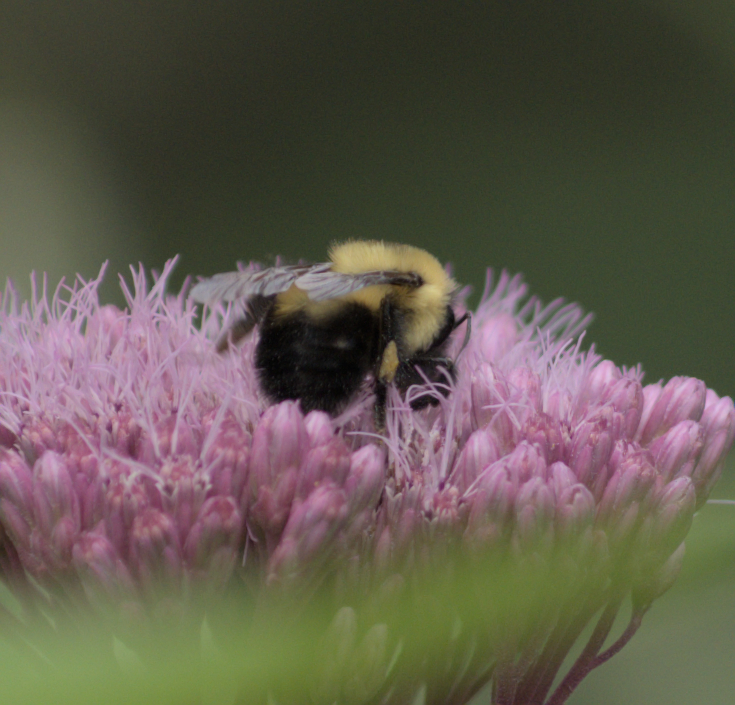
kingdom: Animalia
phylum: Arthropoda
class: Insecta
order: Hymenoptera
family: Apidae
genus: Bombus
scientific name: Bombus bimaculatus
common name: Two-spotted bumble bee
